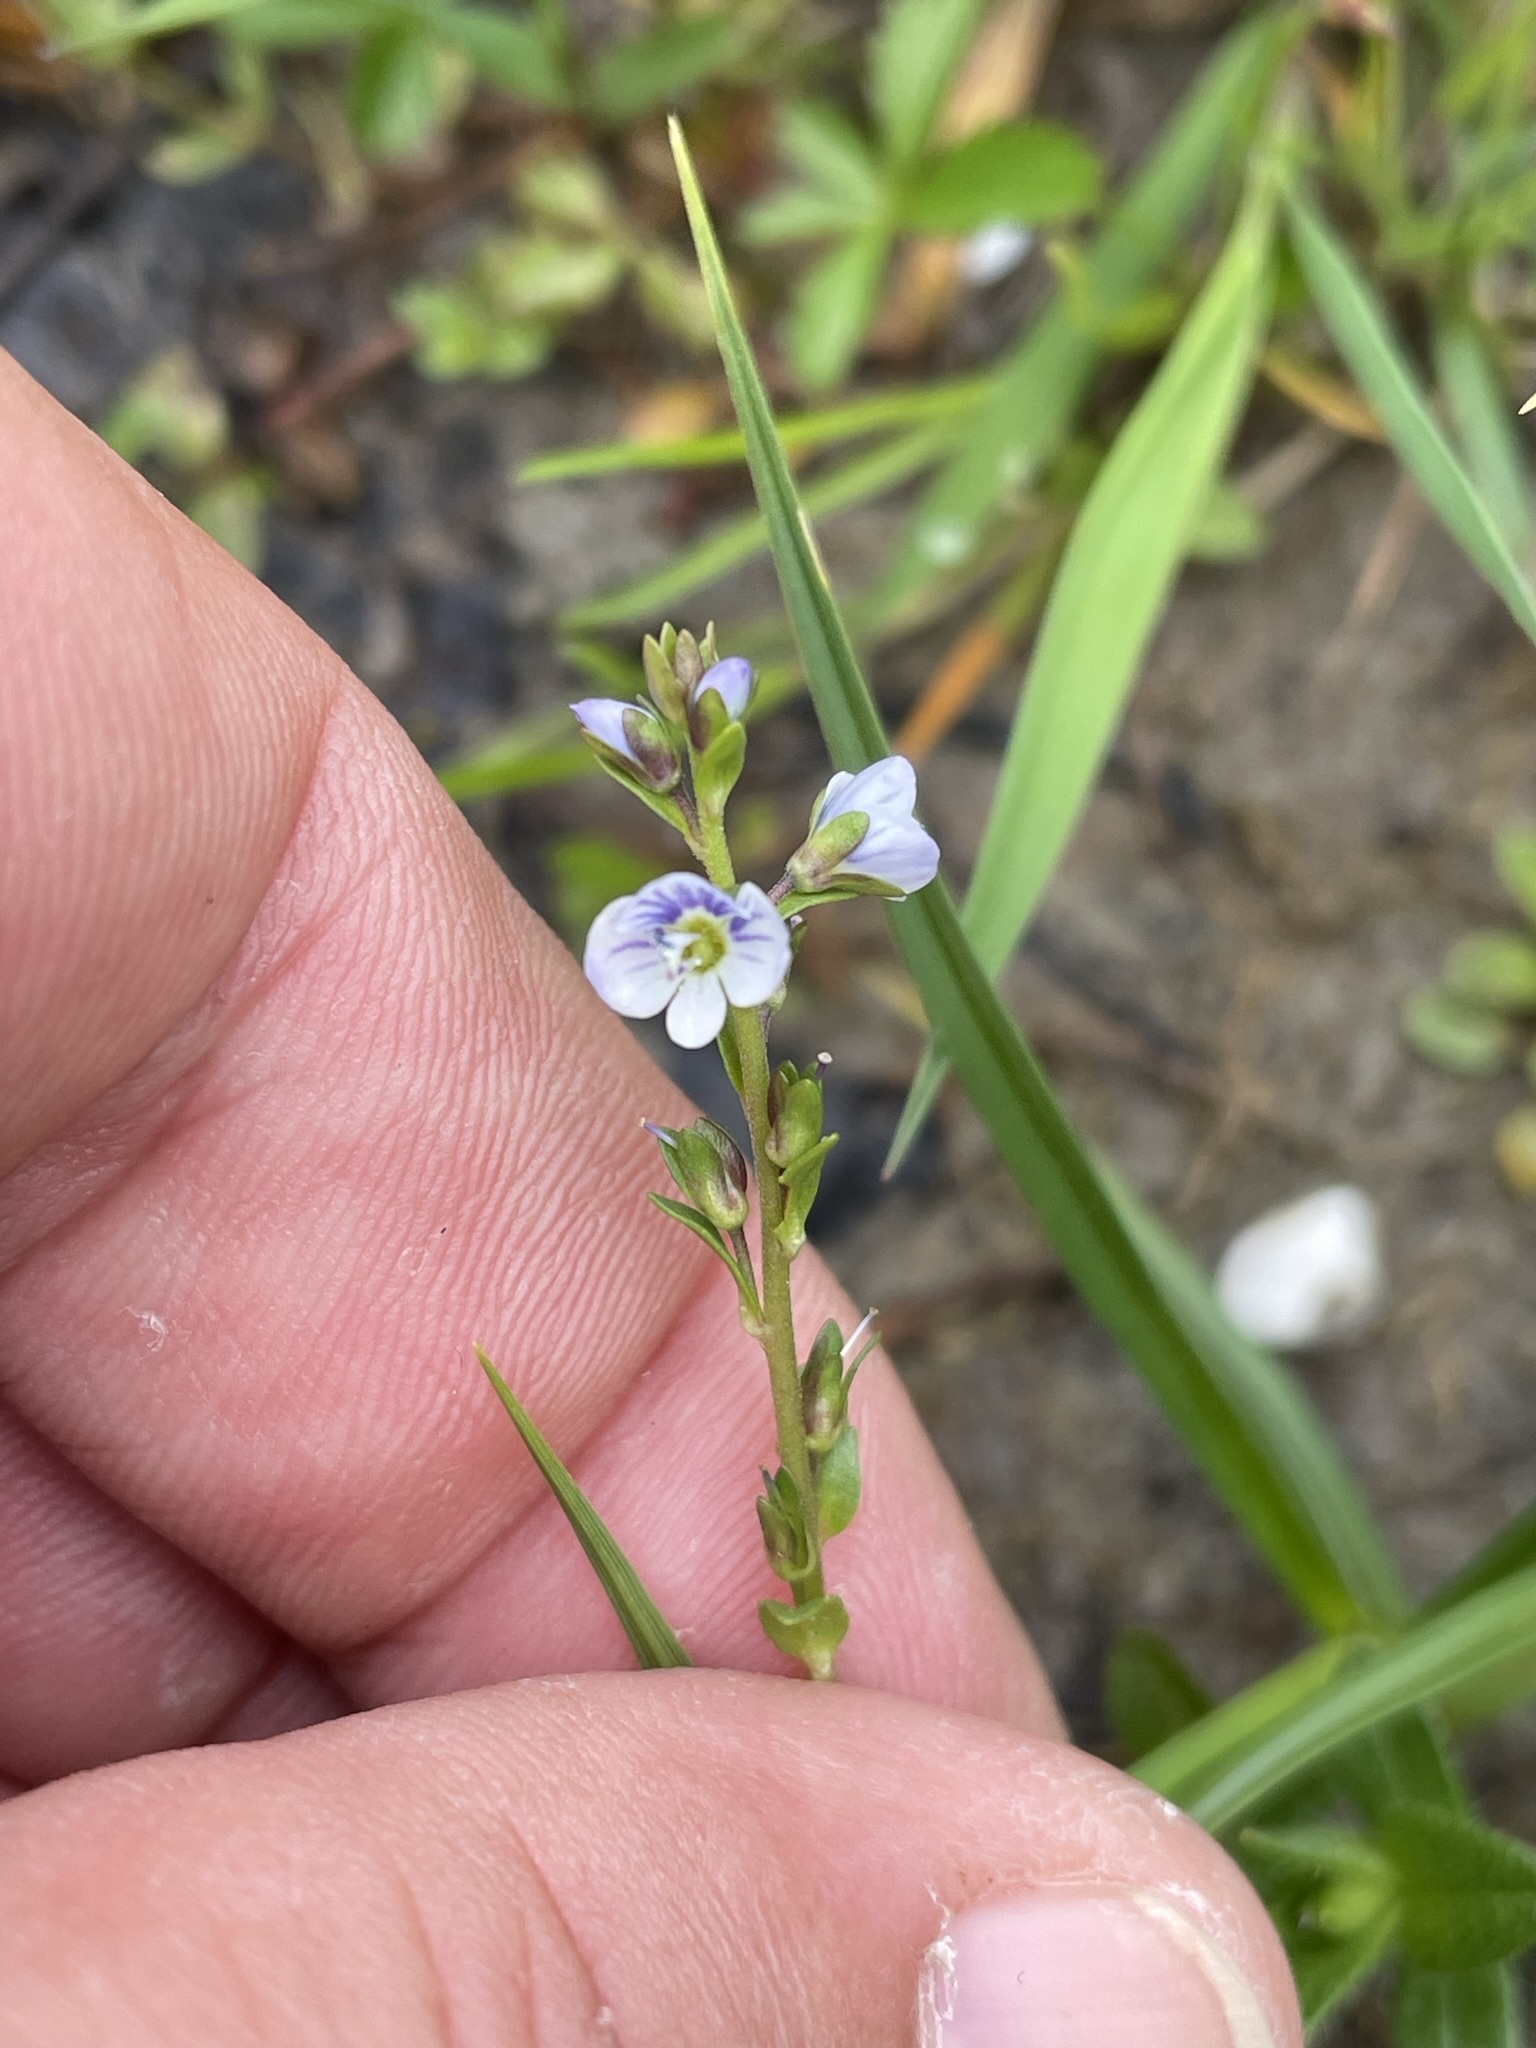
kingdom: Plantae
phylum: Tracheophyta
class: Magnoliopsida
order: Lamiales
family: Plantaginaceae
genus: Veronica
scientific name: Veronica serpyllifolia
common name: Thyme-leaved speedwell
